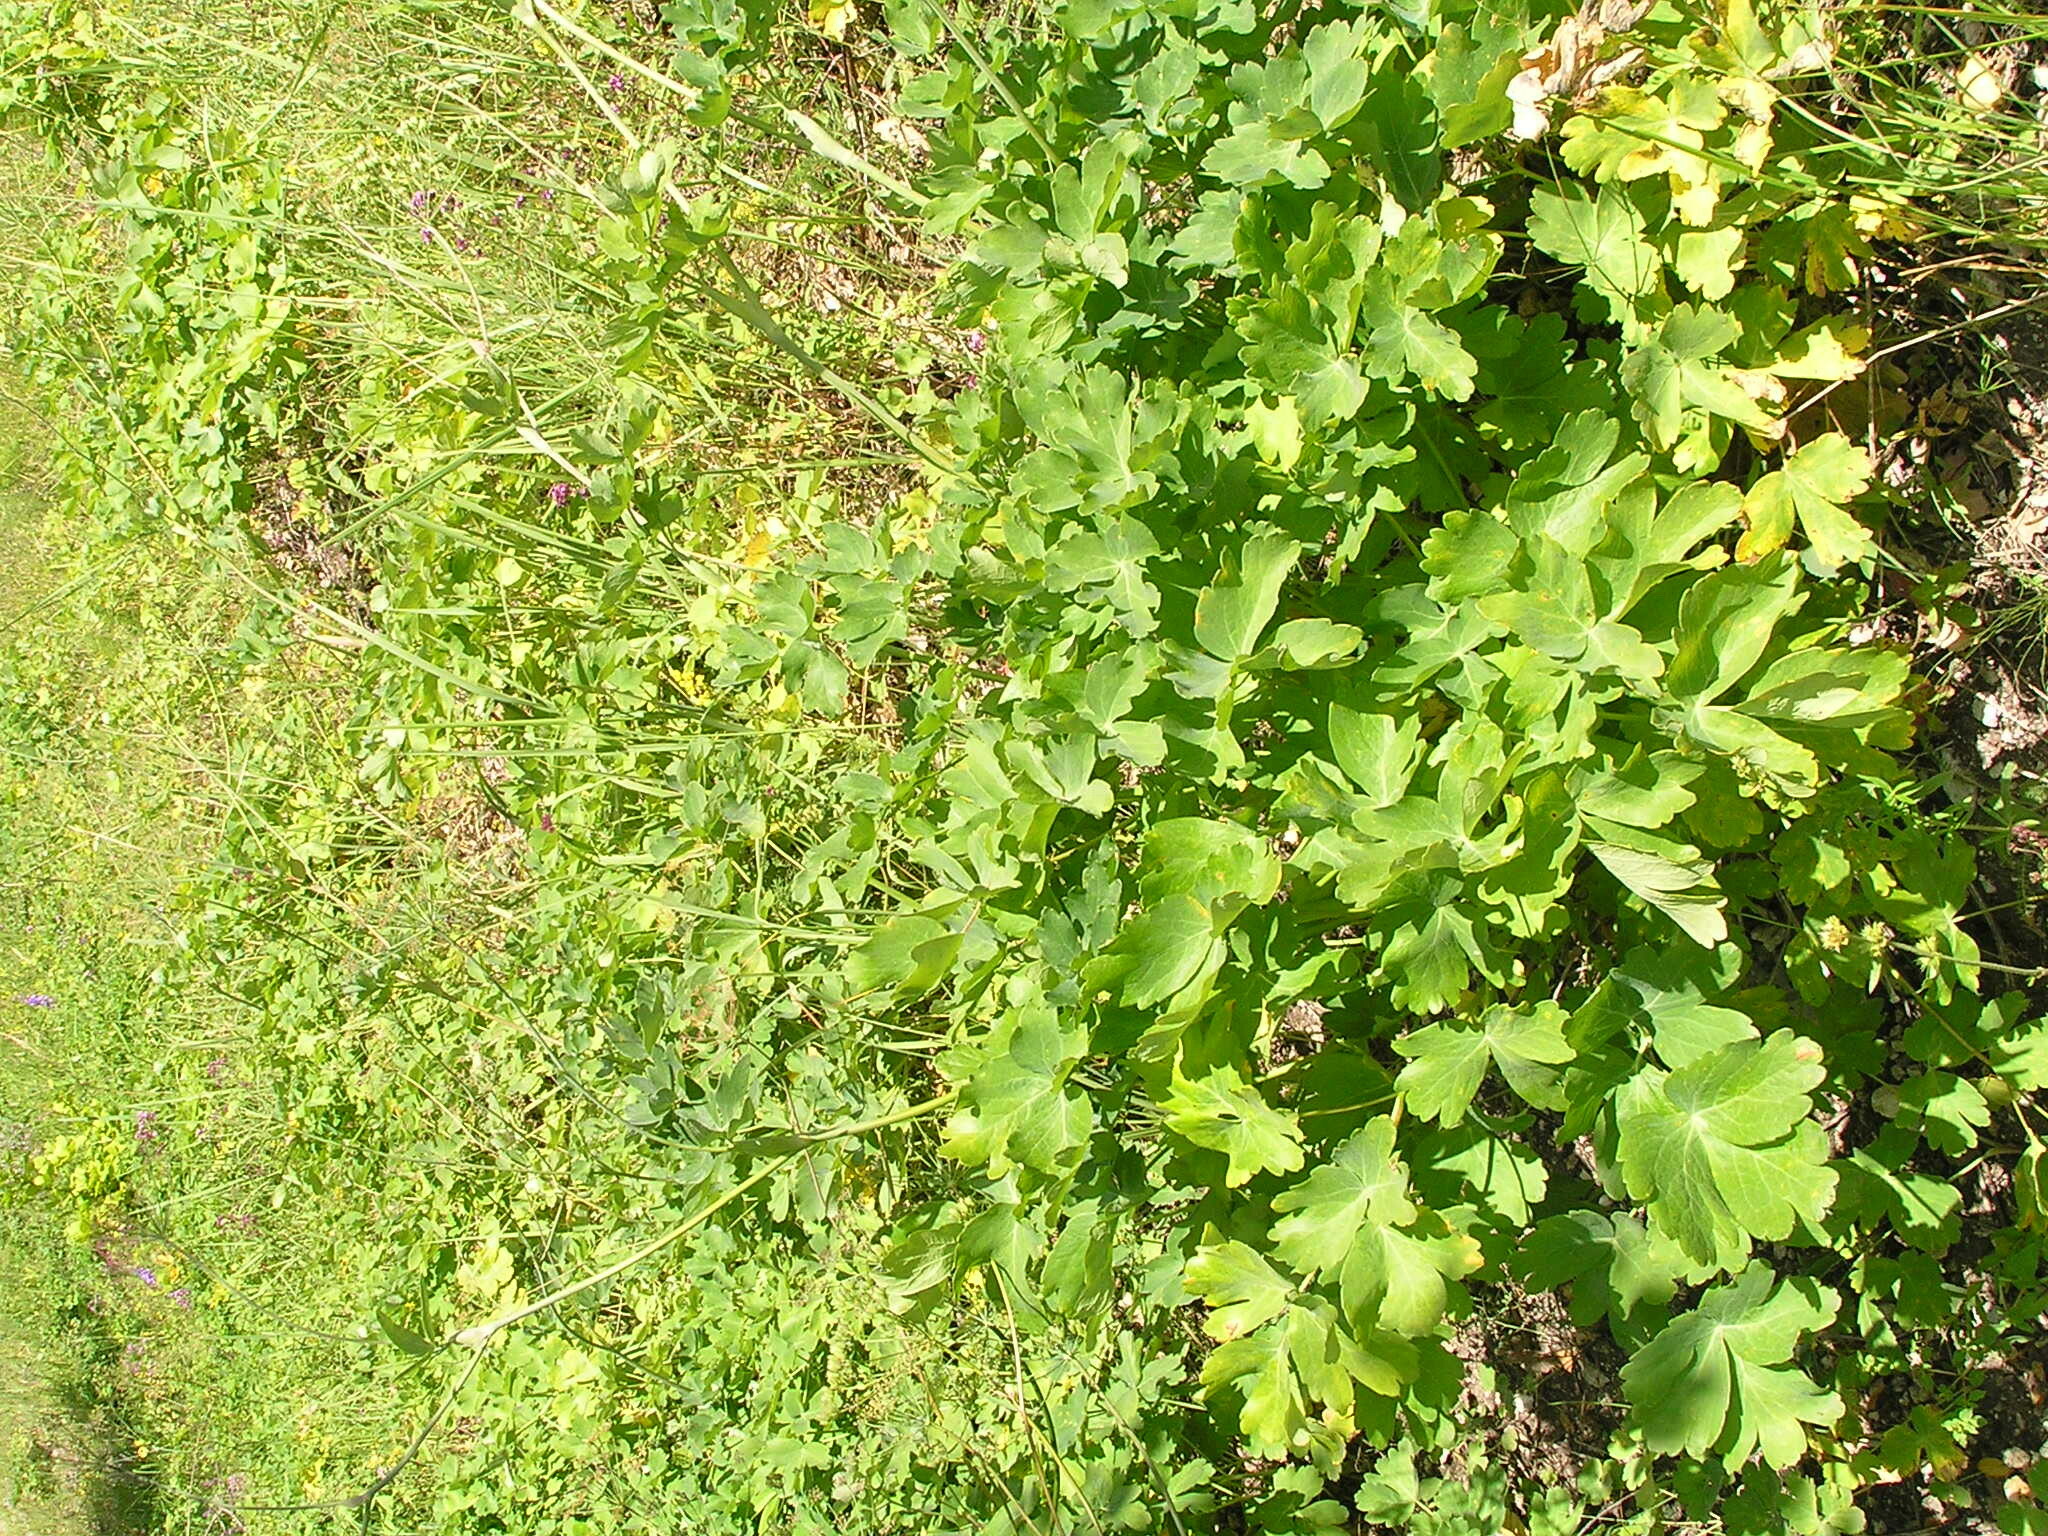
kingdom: Plantae
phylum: Tracheophyta
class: Magnoliopsida
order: Apiales
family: Apiaceae
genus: Laser
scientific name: Laser trilobum
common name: Laser
